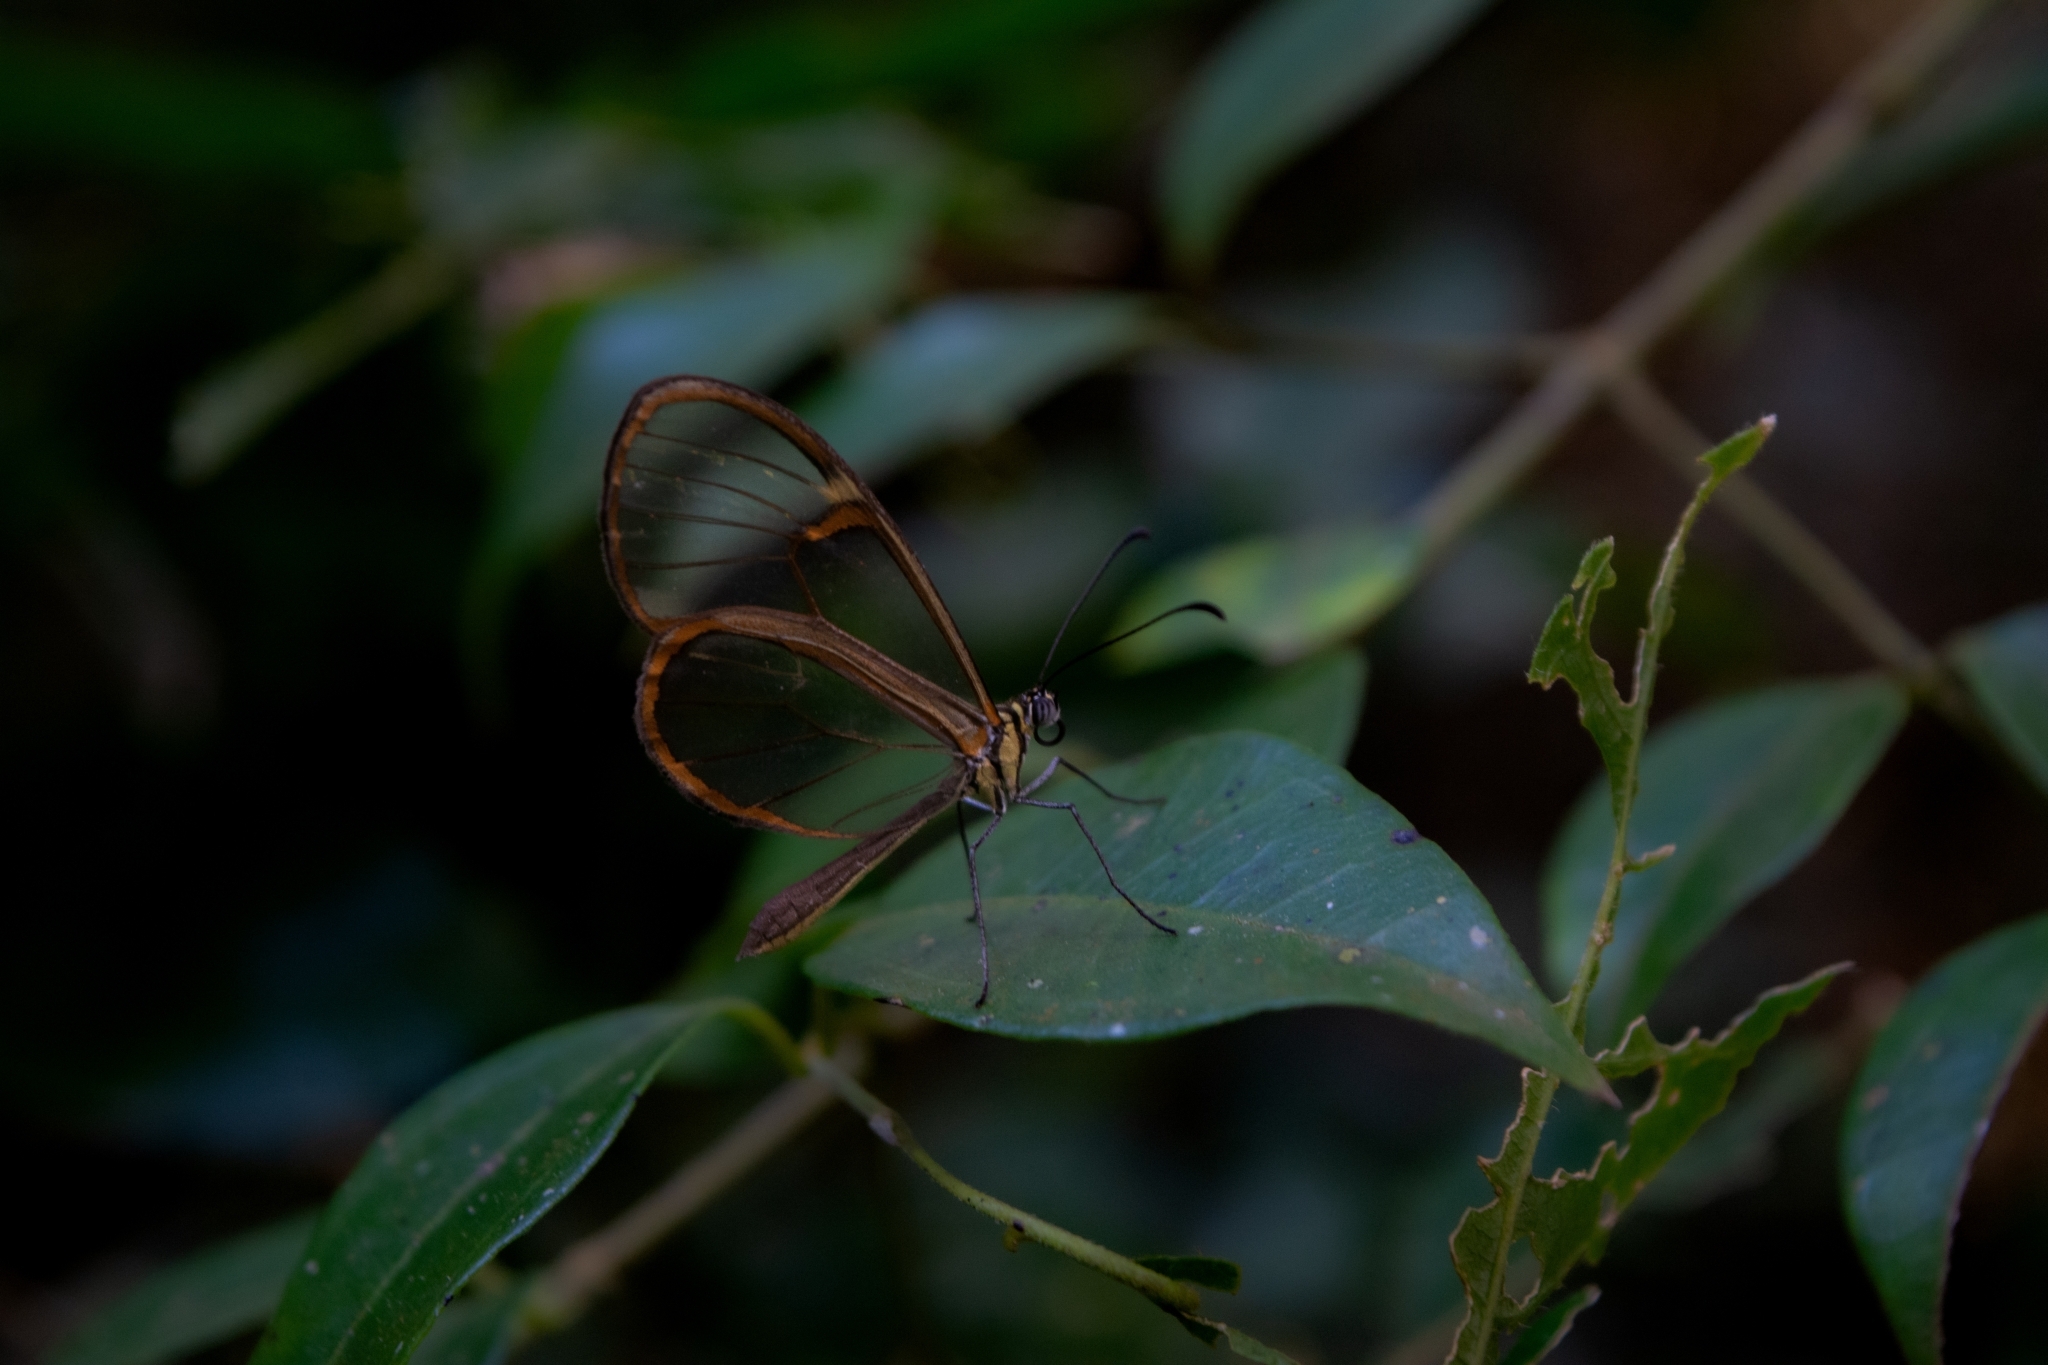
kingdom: Animalia
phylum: Arthropoda
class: Insecta
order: Lepidoptera
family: Nymphalidae
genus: Episcada
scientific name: Episcada hymenaea
